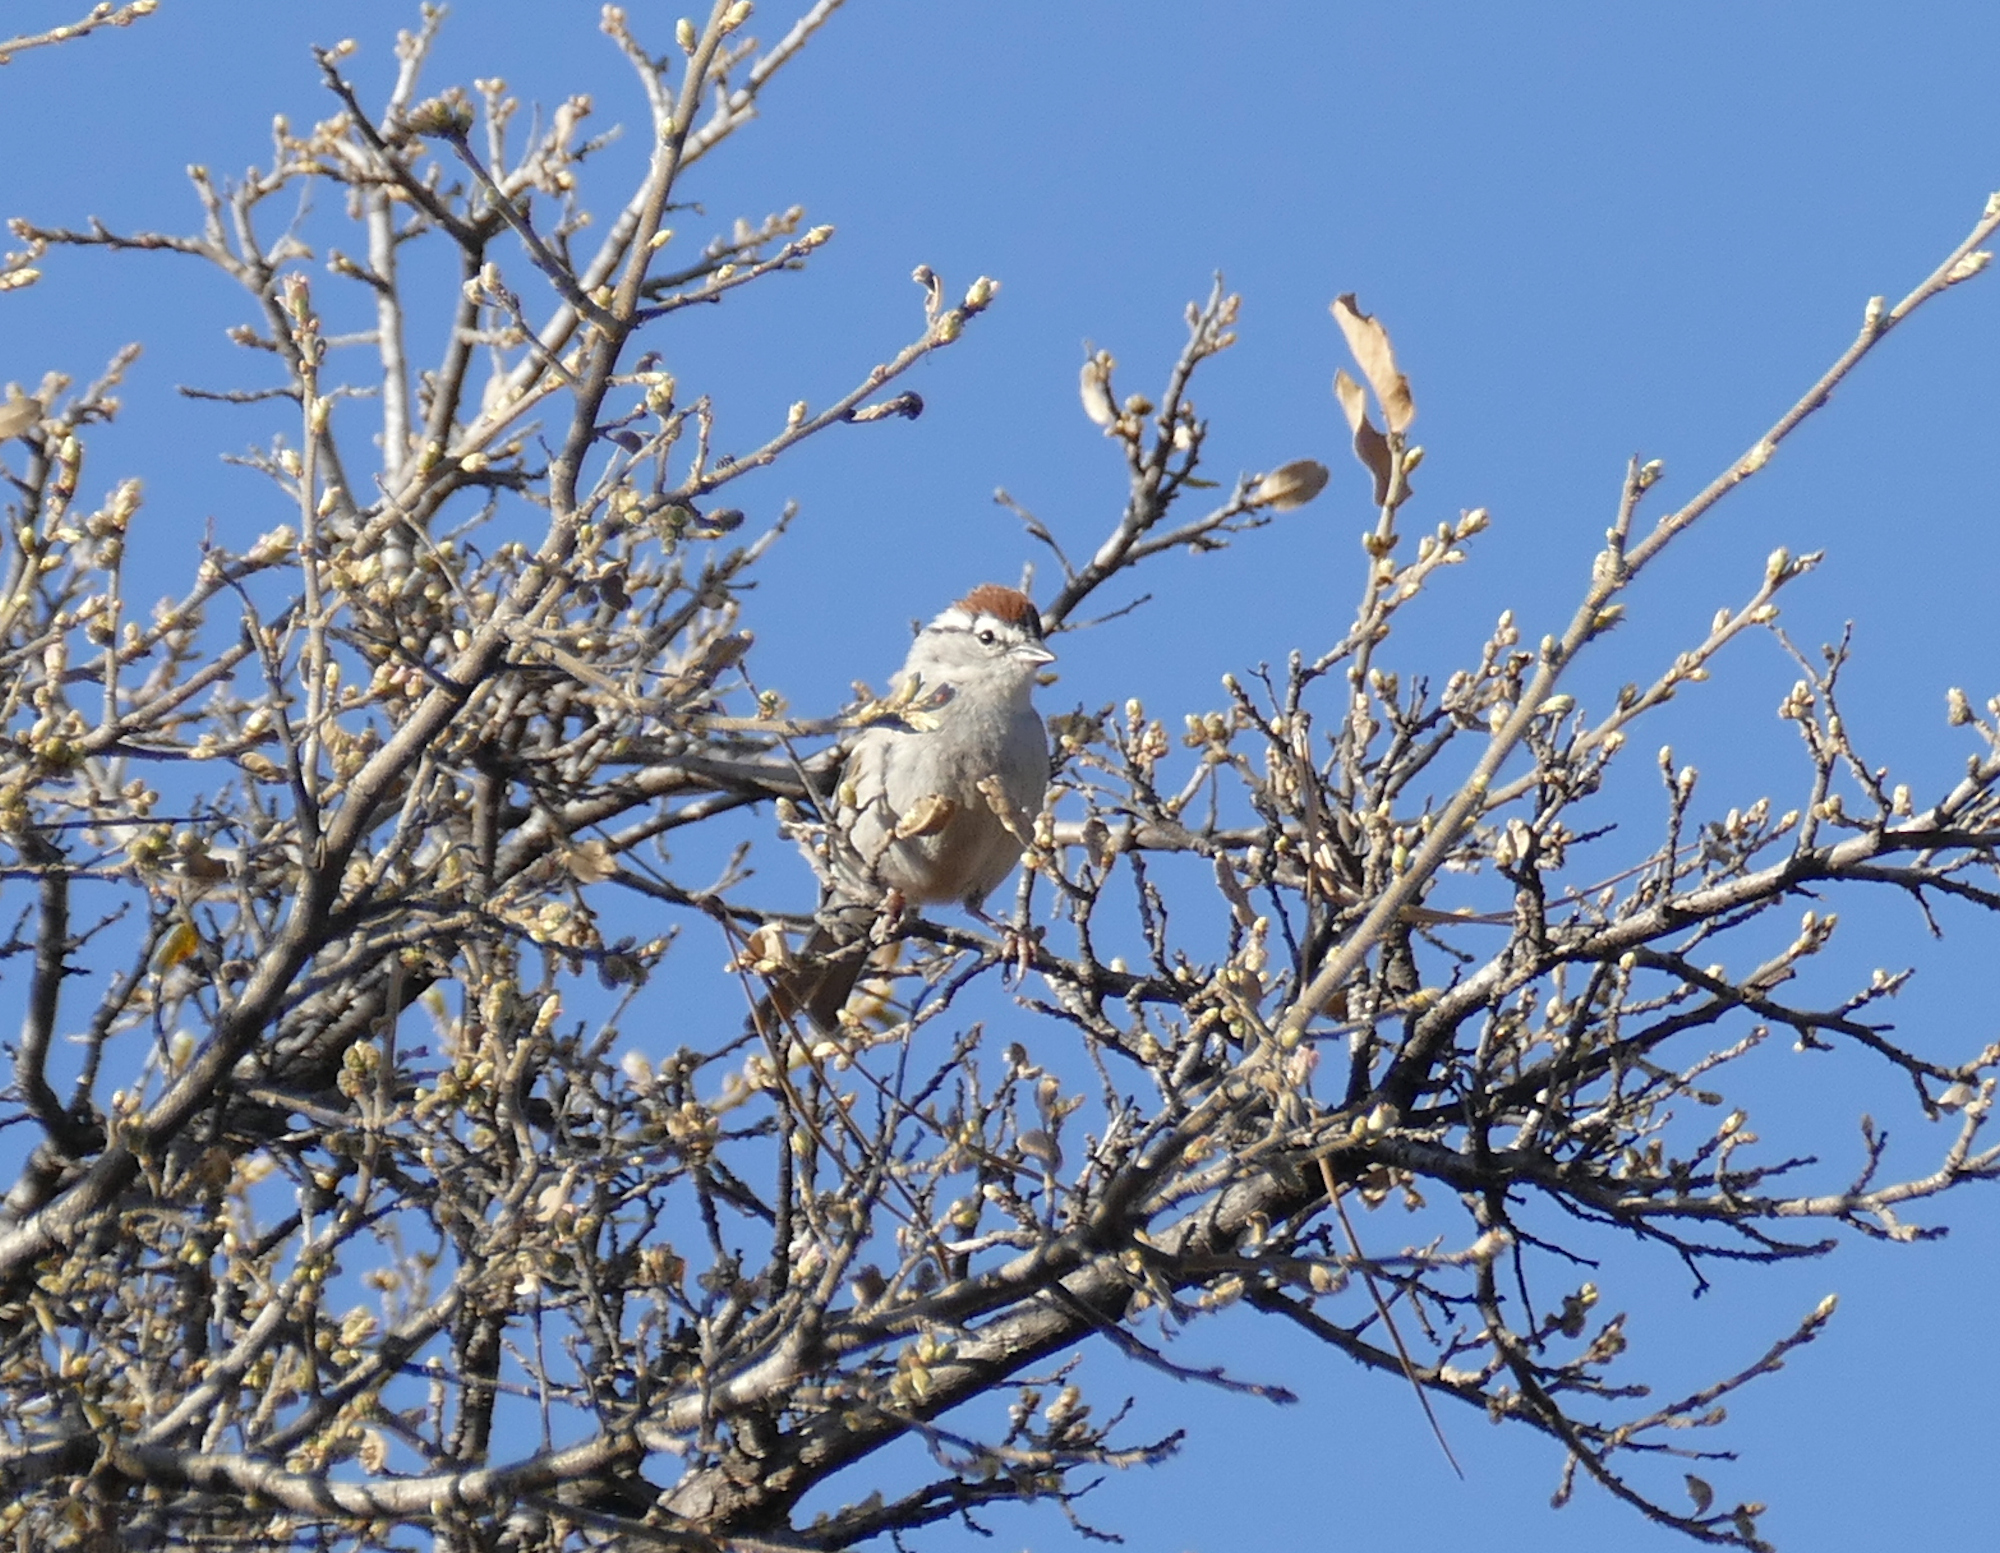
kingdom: Animalia
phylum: Chordata
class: Aves
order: Passeriformes
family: Passerellidae
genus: Spizella
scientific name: Spizella passerina
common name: Chipping sparrow
